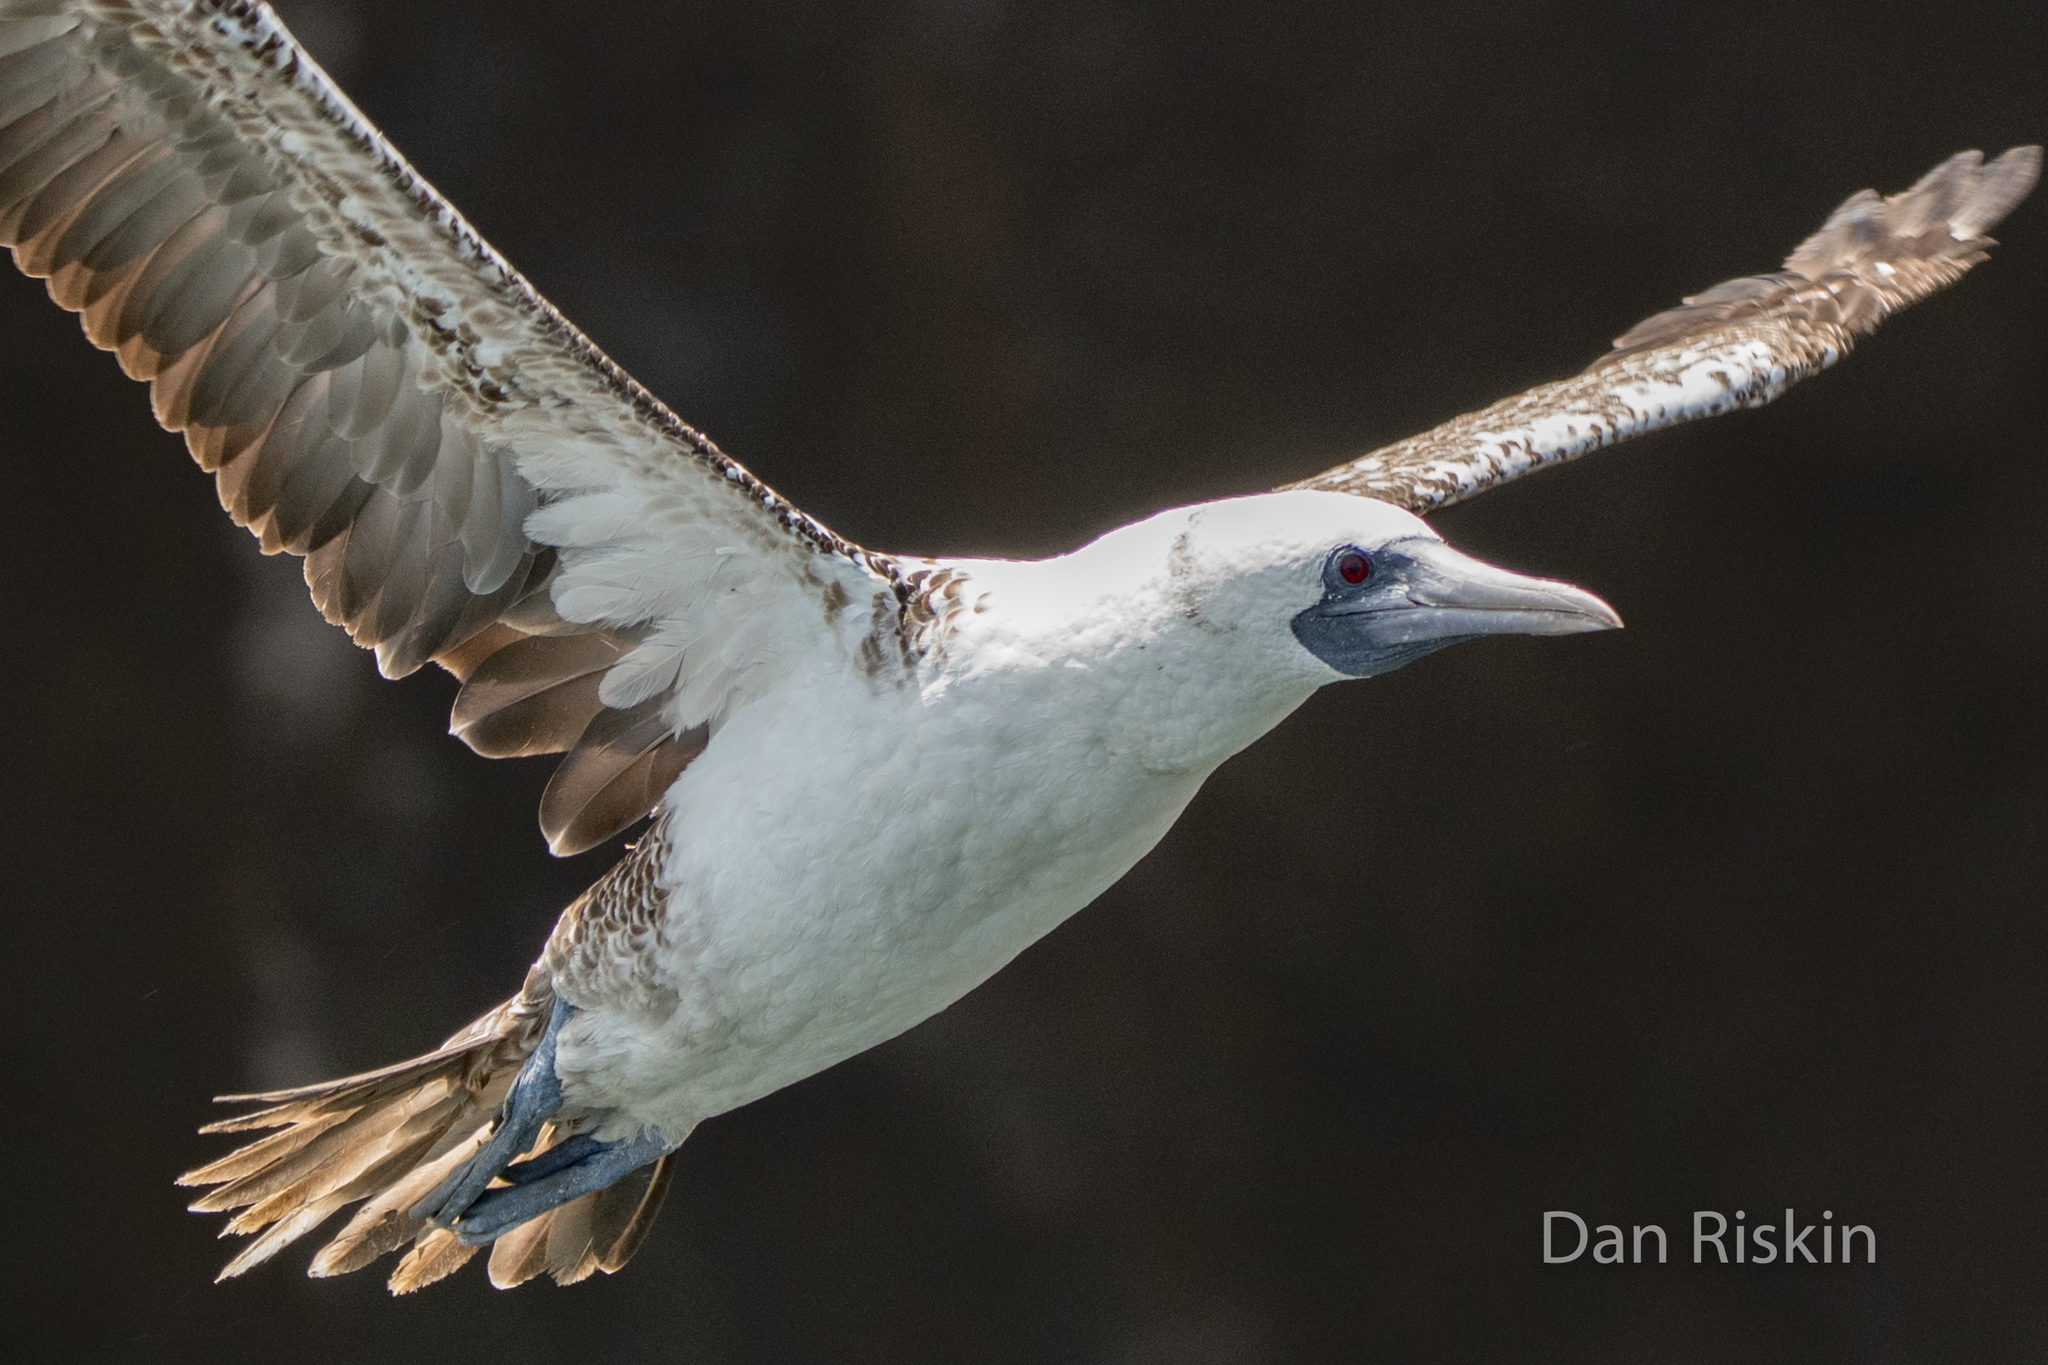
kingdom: Animalia
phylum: Chordata
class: Aves
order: Suliformes
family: Sulidae
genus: Sula
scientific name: Sula variegata
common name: Peruvian booby
